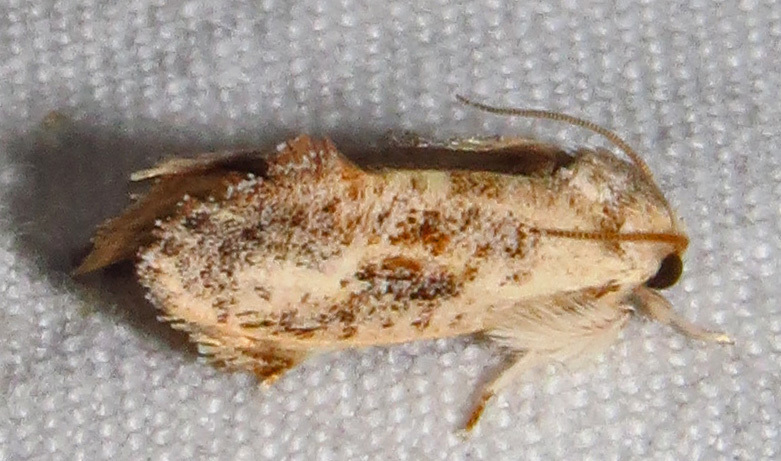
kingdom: Animalia
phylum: Arthropoda
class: Insecta
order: Lepidoptera
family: Tineidae
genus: Acrolophus
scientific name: Acrolophus mycetophagus
